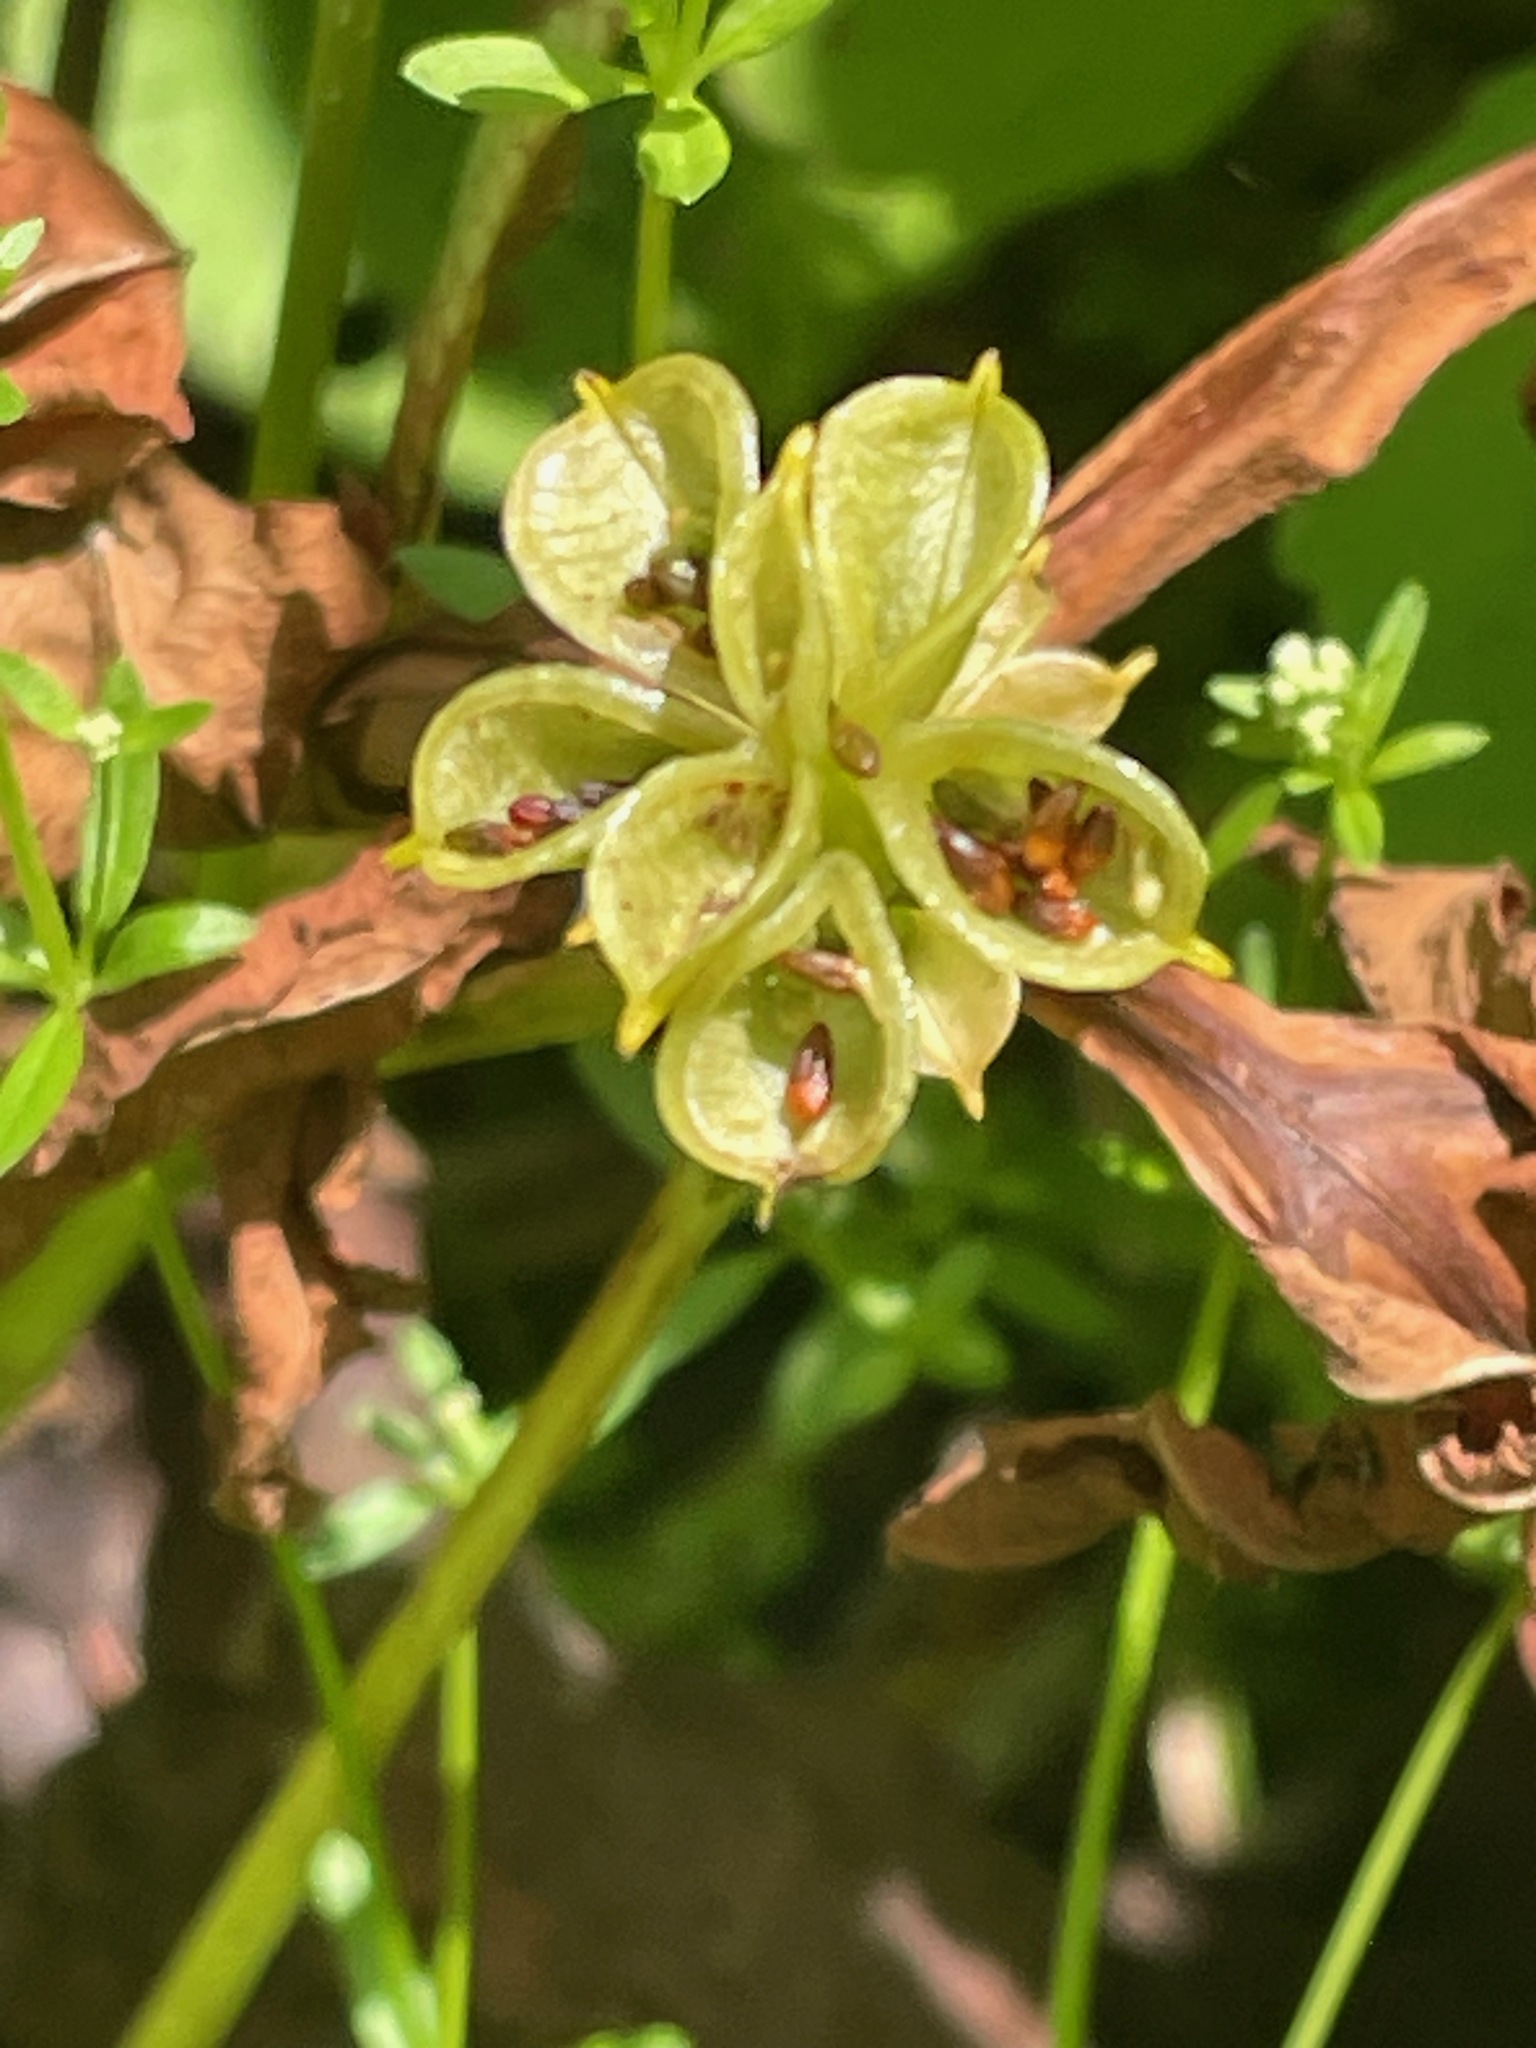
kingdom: Plantae
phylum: Tracheophyta
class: Magnoliopsida
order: Ranunculales
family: Ranunculaceae
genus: Caltha
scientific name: Caltha palustris
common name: Marsh marigold
